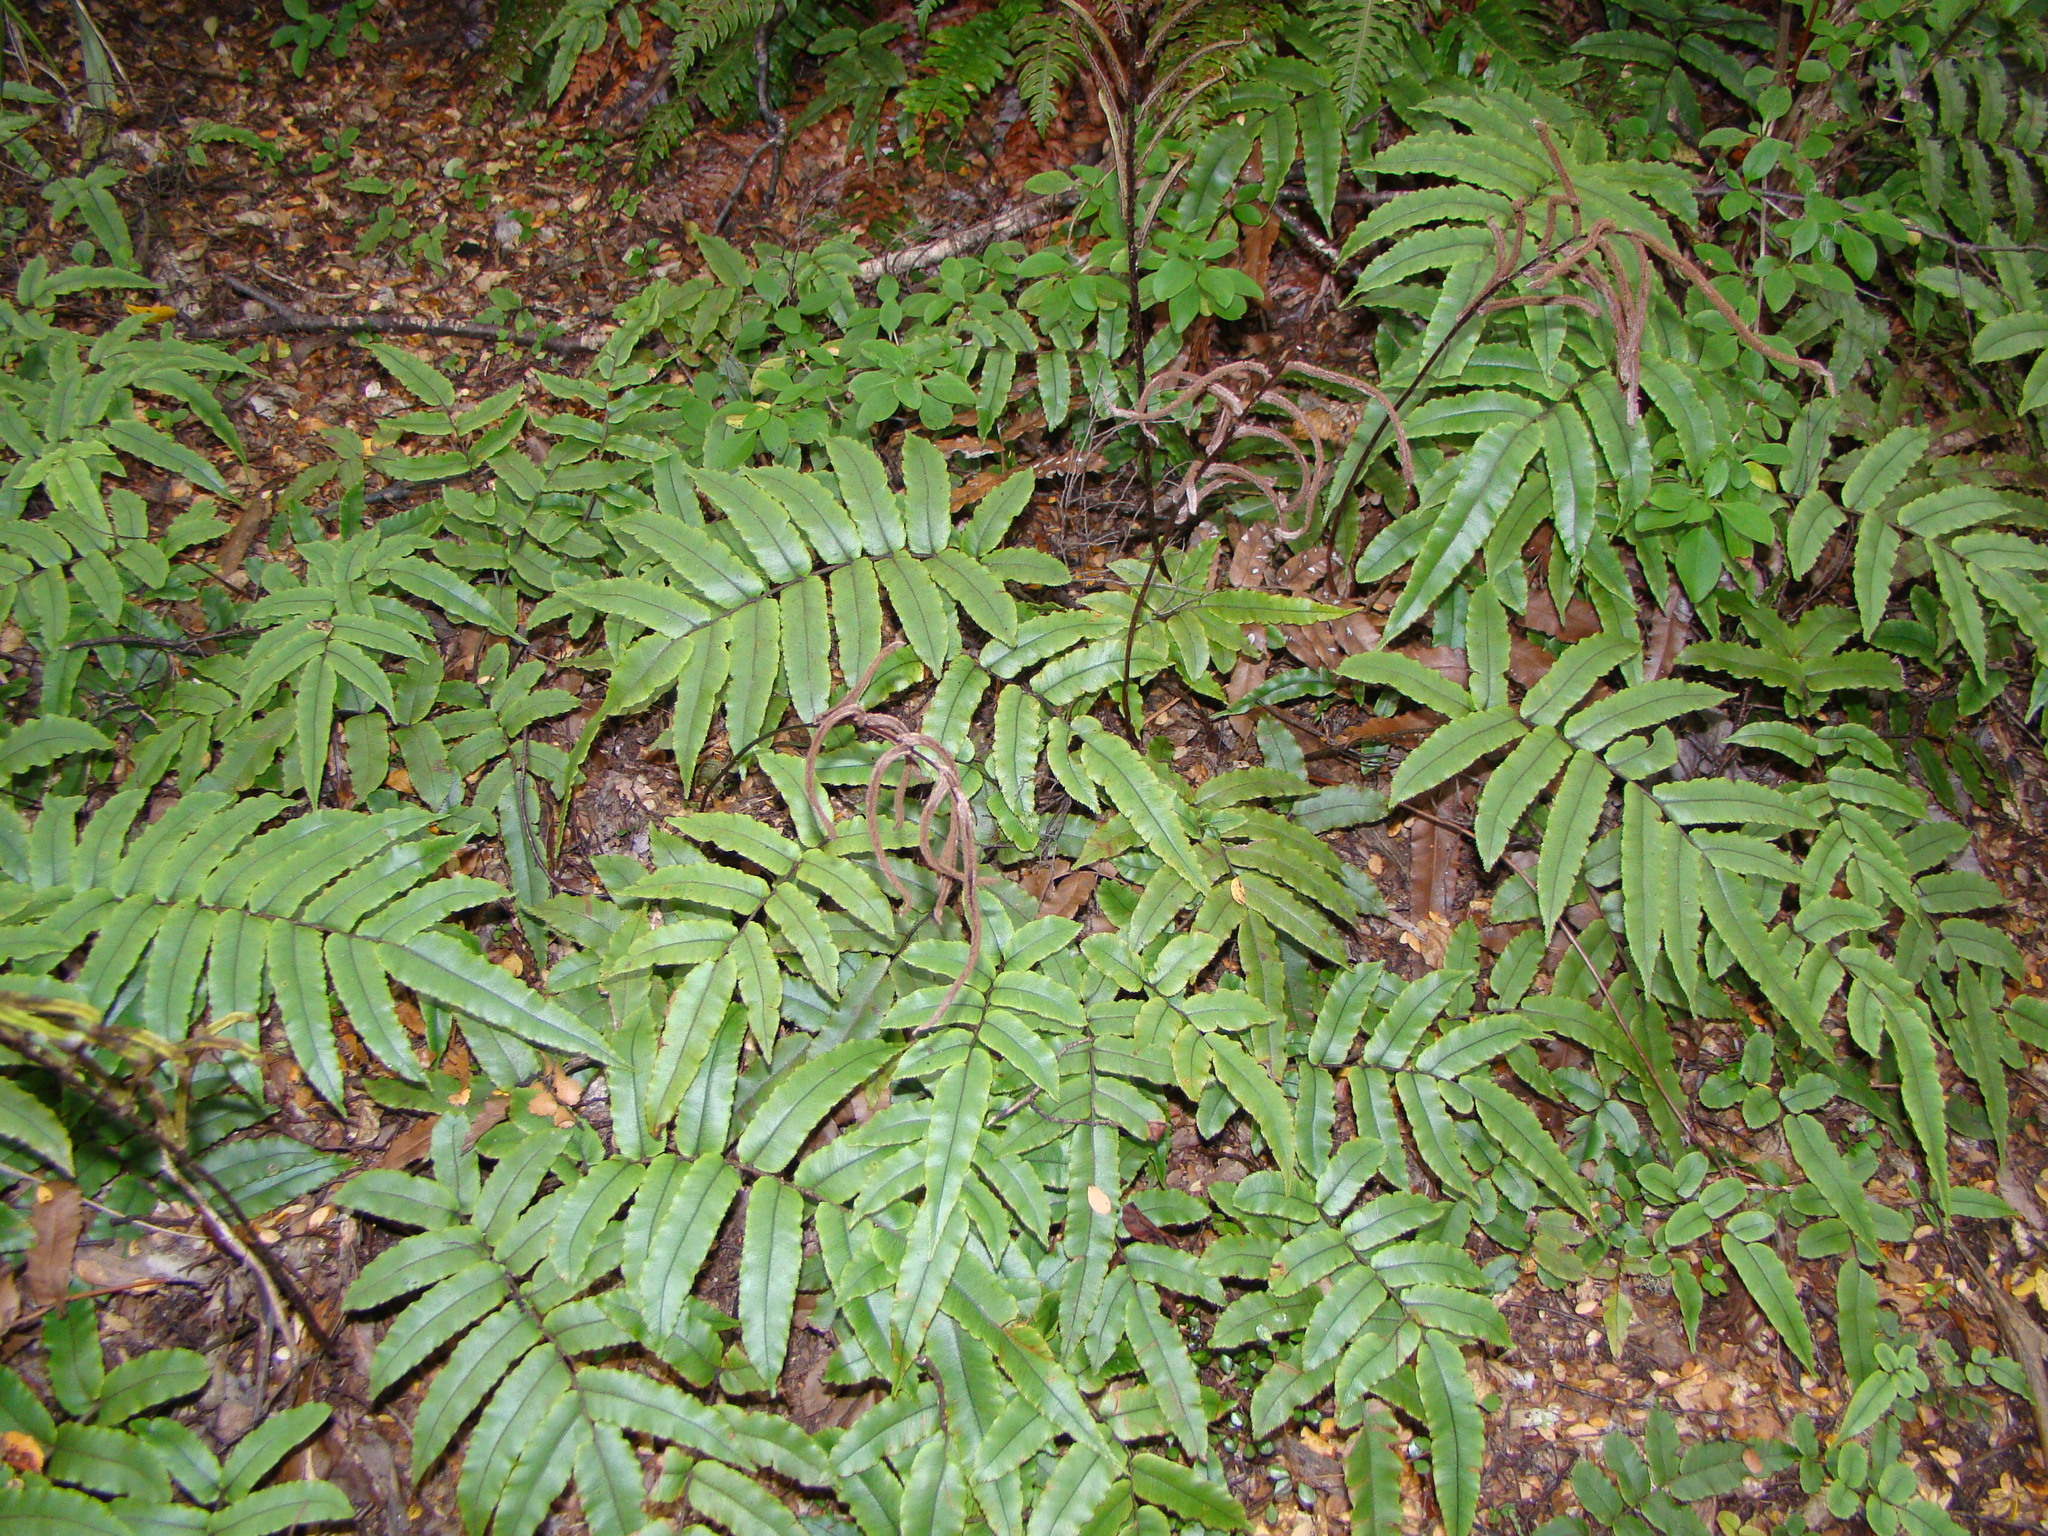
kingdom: Plantae
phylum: Tracheophyta
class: Polypodiopsida
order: Polypodiales
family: Blechnaceae
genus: Parablechnum
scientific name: Parablechnum procerum
